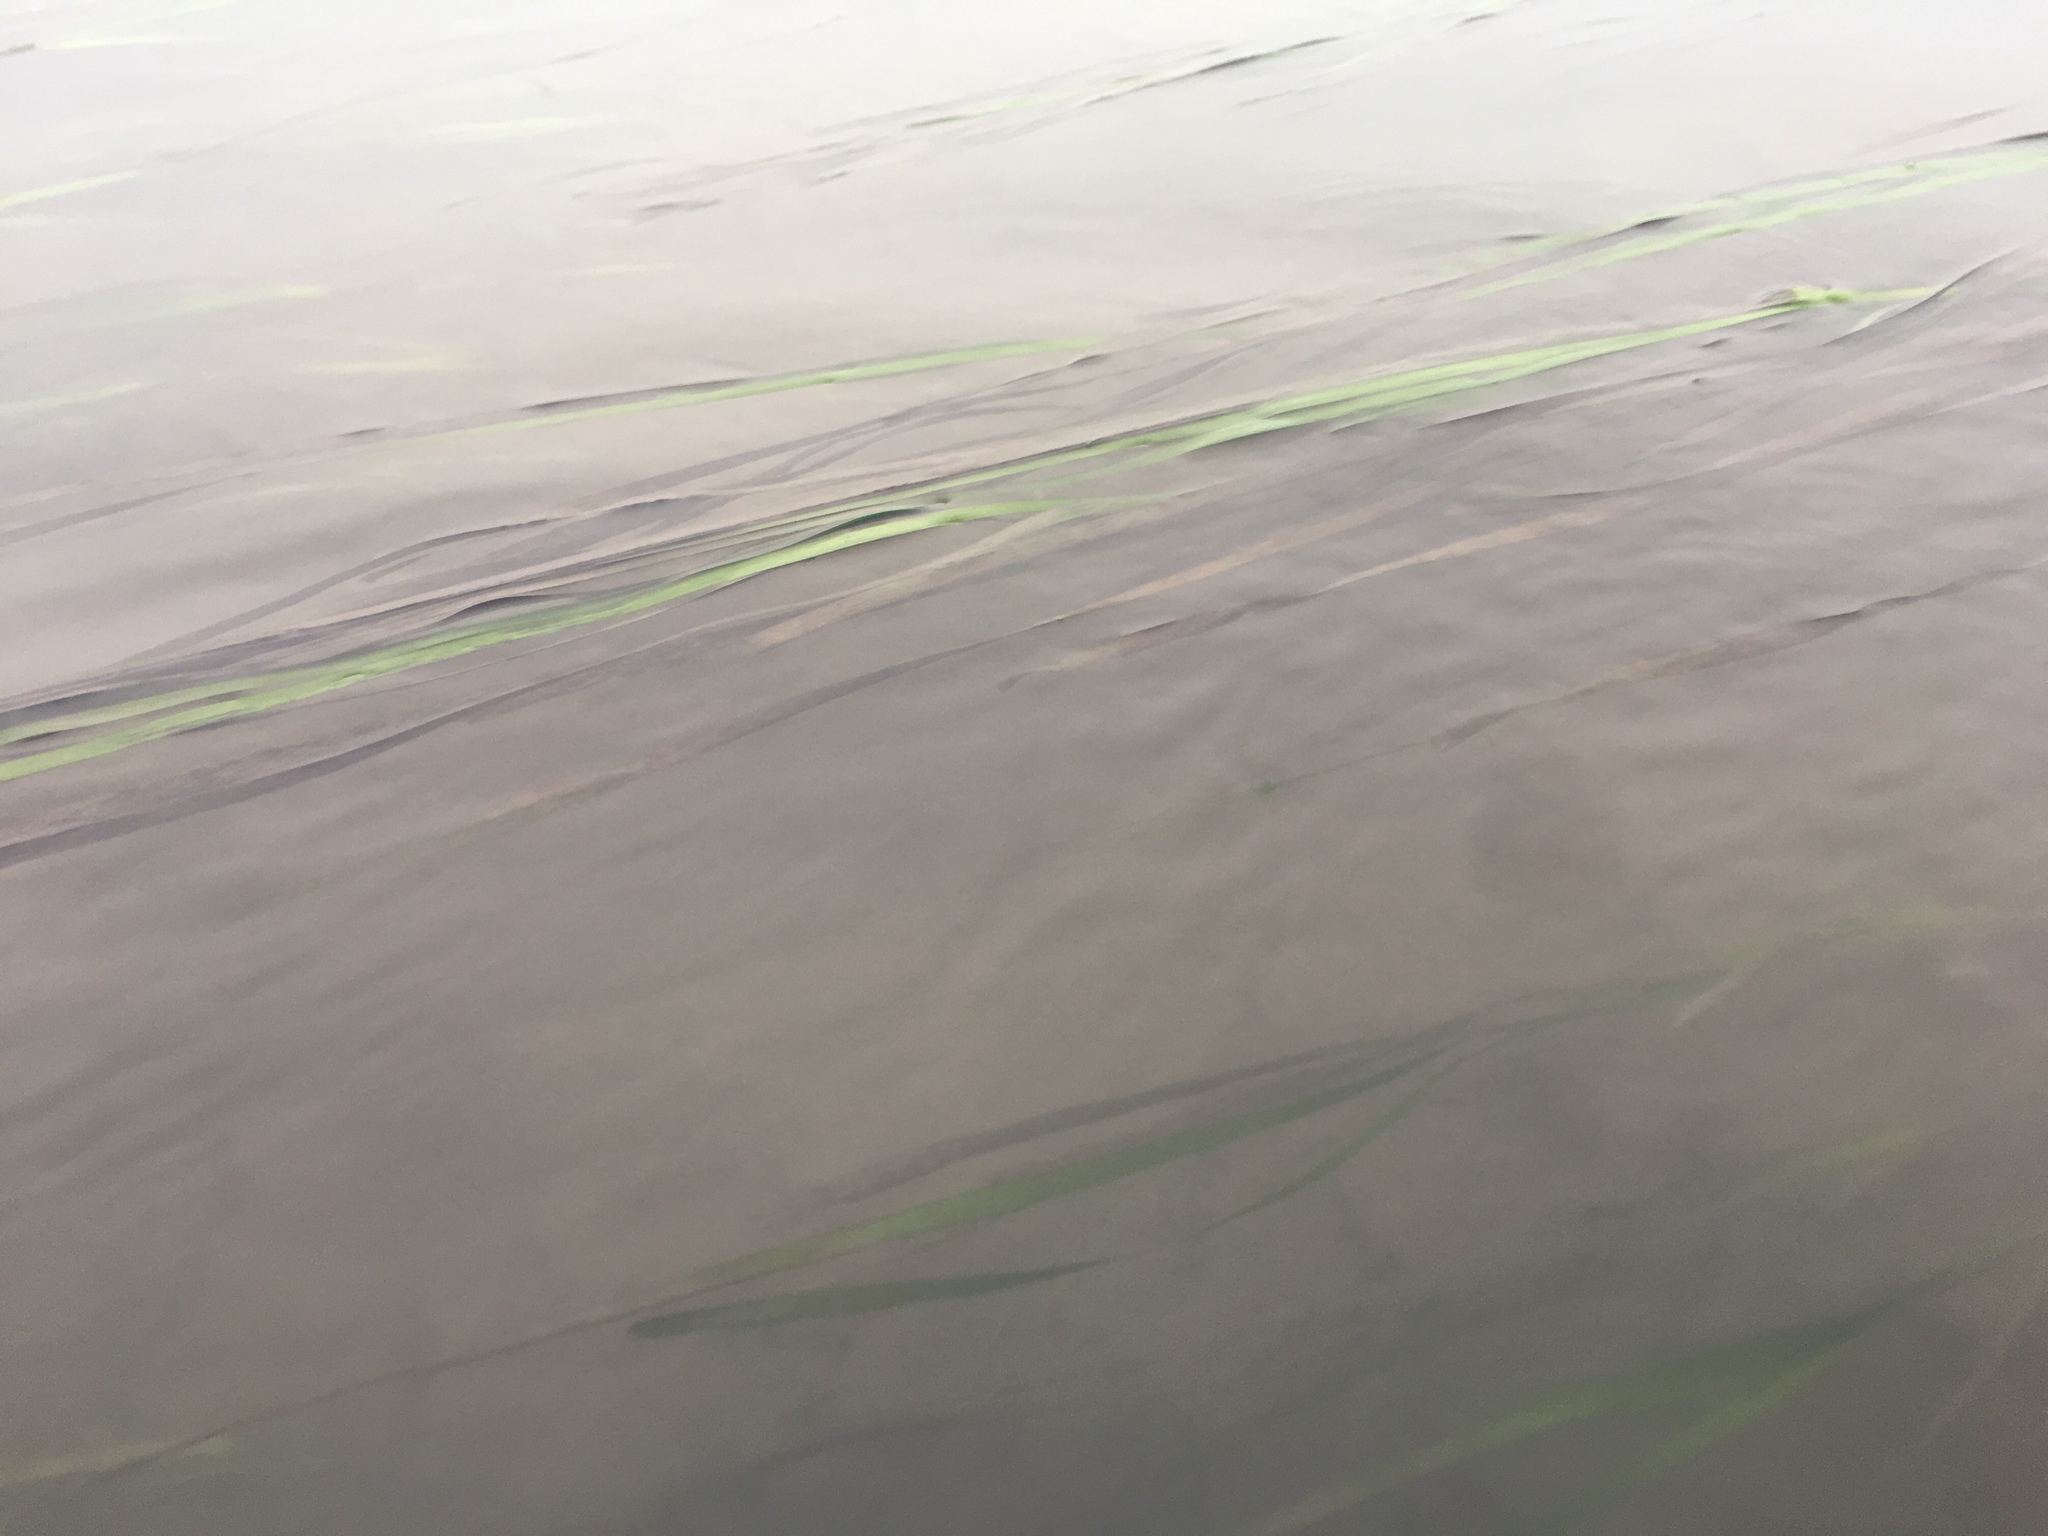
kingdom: Plantae
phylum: Tracheophyta
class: Liliopsida
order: Alismatales
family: Zosteraceae
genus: Zostera
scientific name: Zostera marina
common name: Eelgrass
